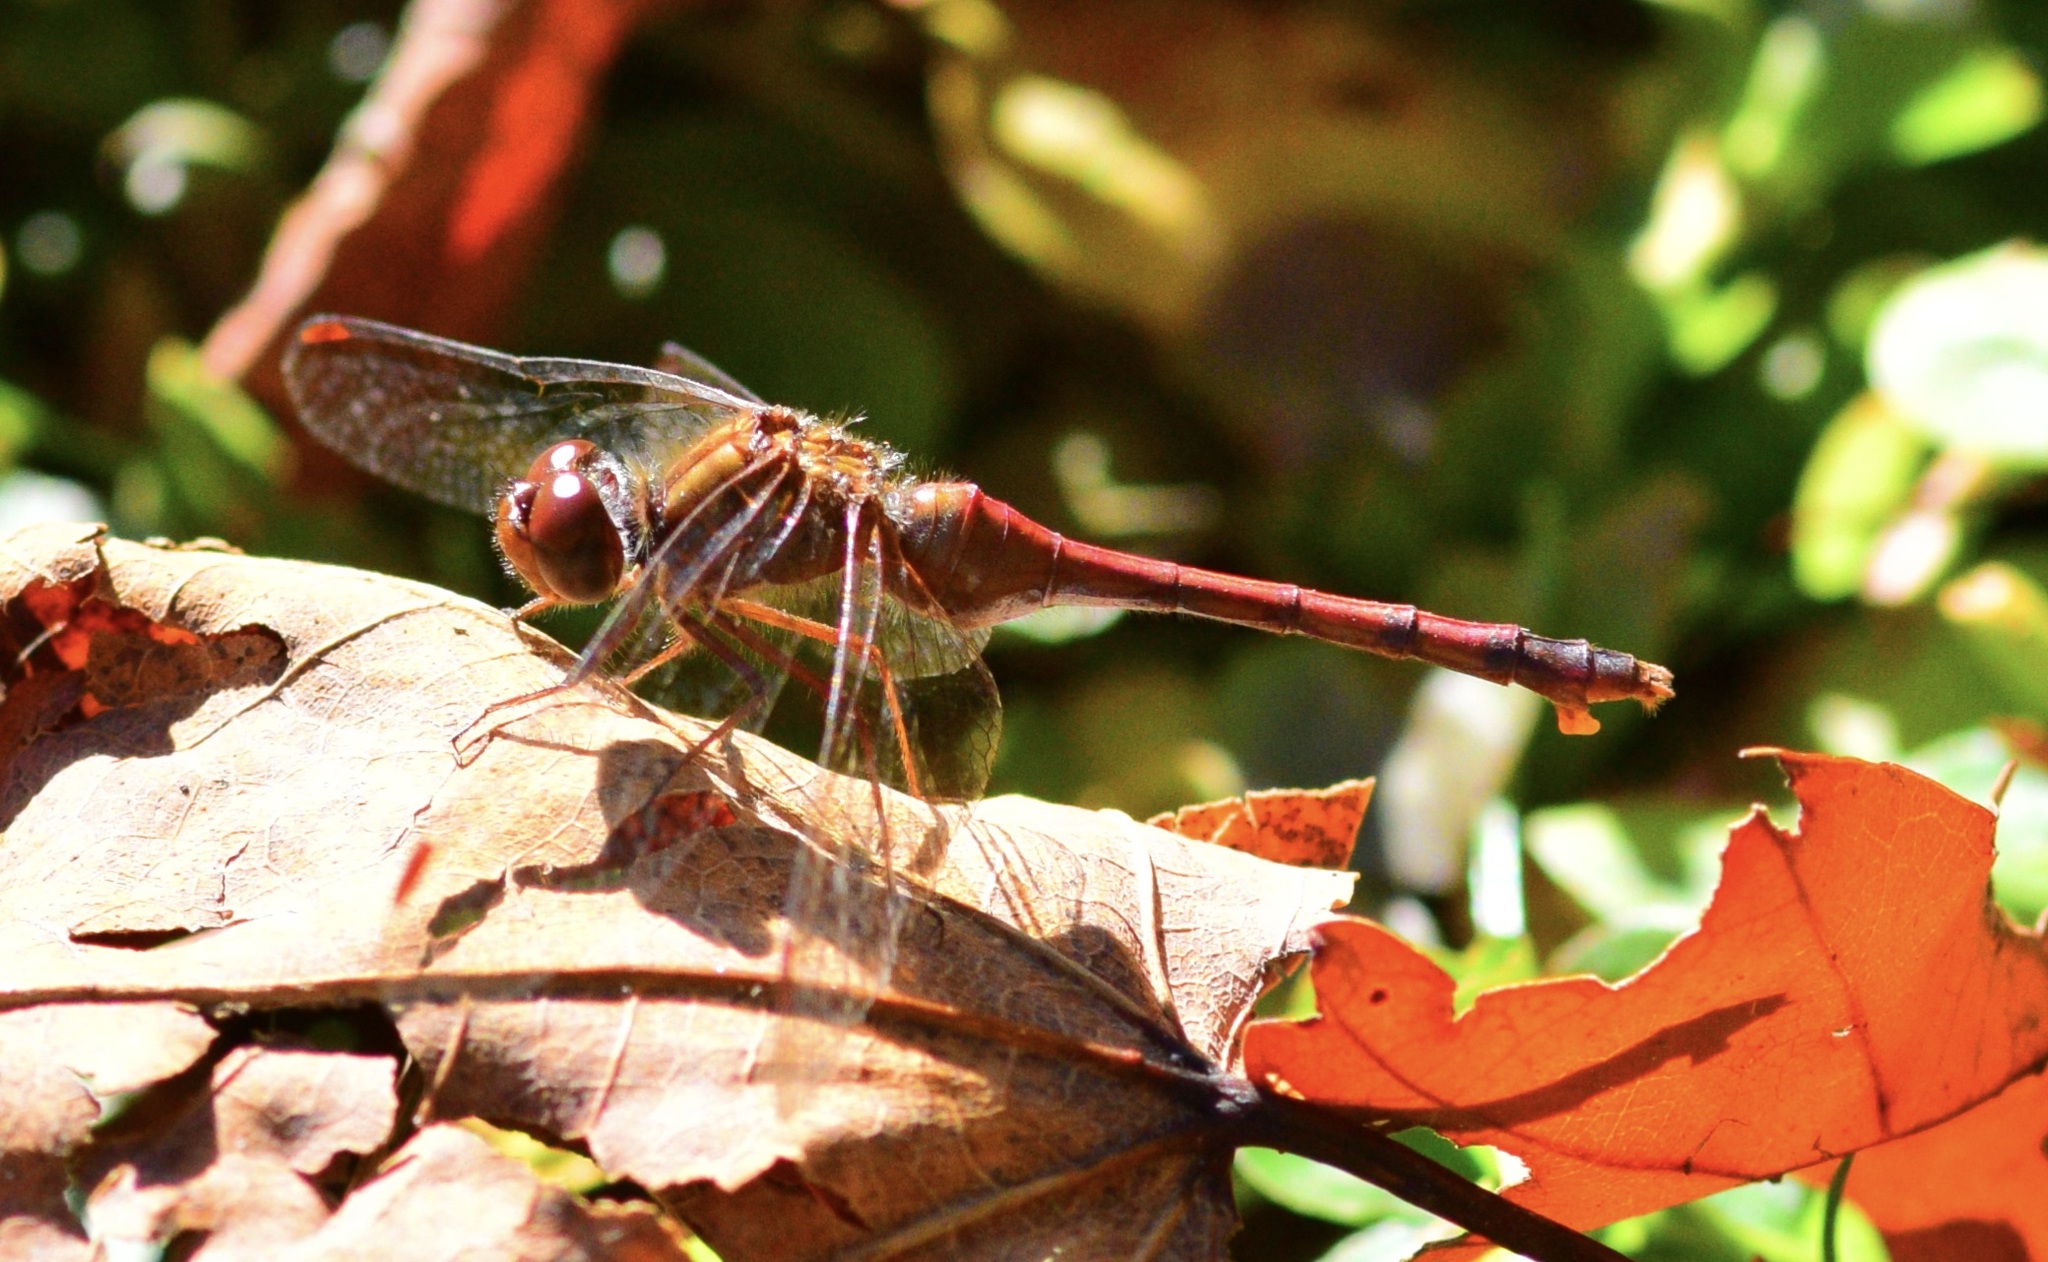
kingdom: Animalia
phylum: Arthropoda
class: Insecta
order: Odonata
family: Libellulidae
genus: Sympetrum
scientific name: Sympetrum vicinum
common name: Autumn meadowhawk
